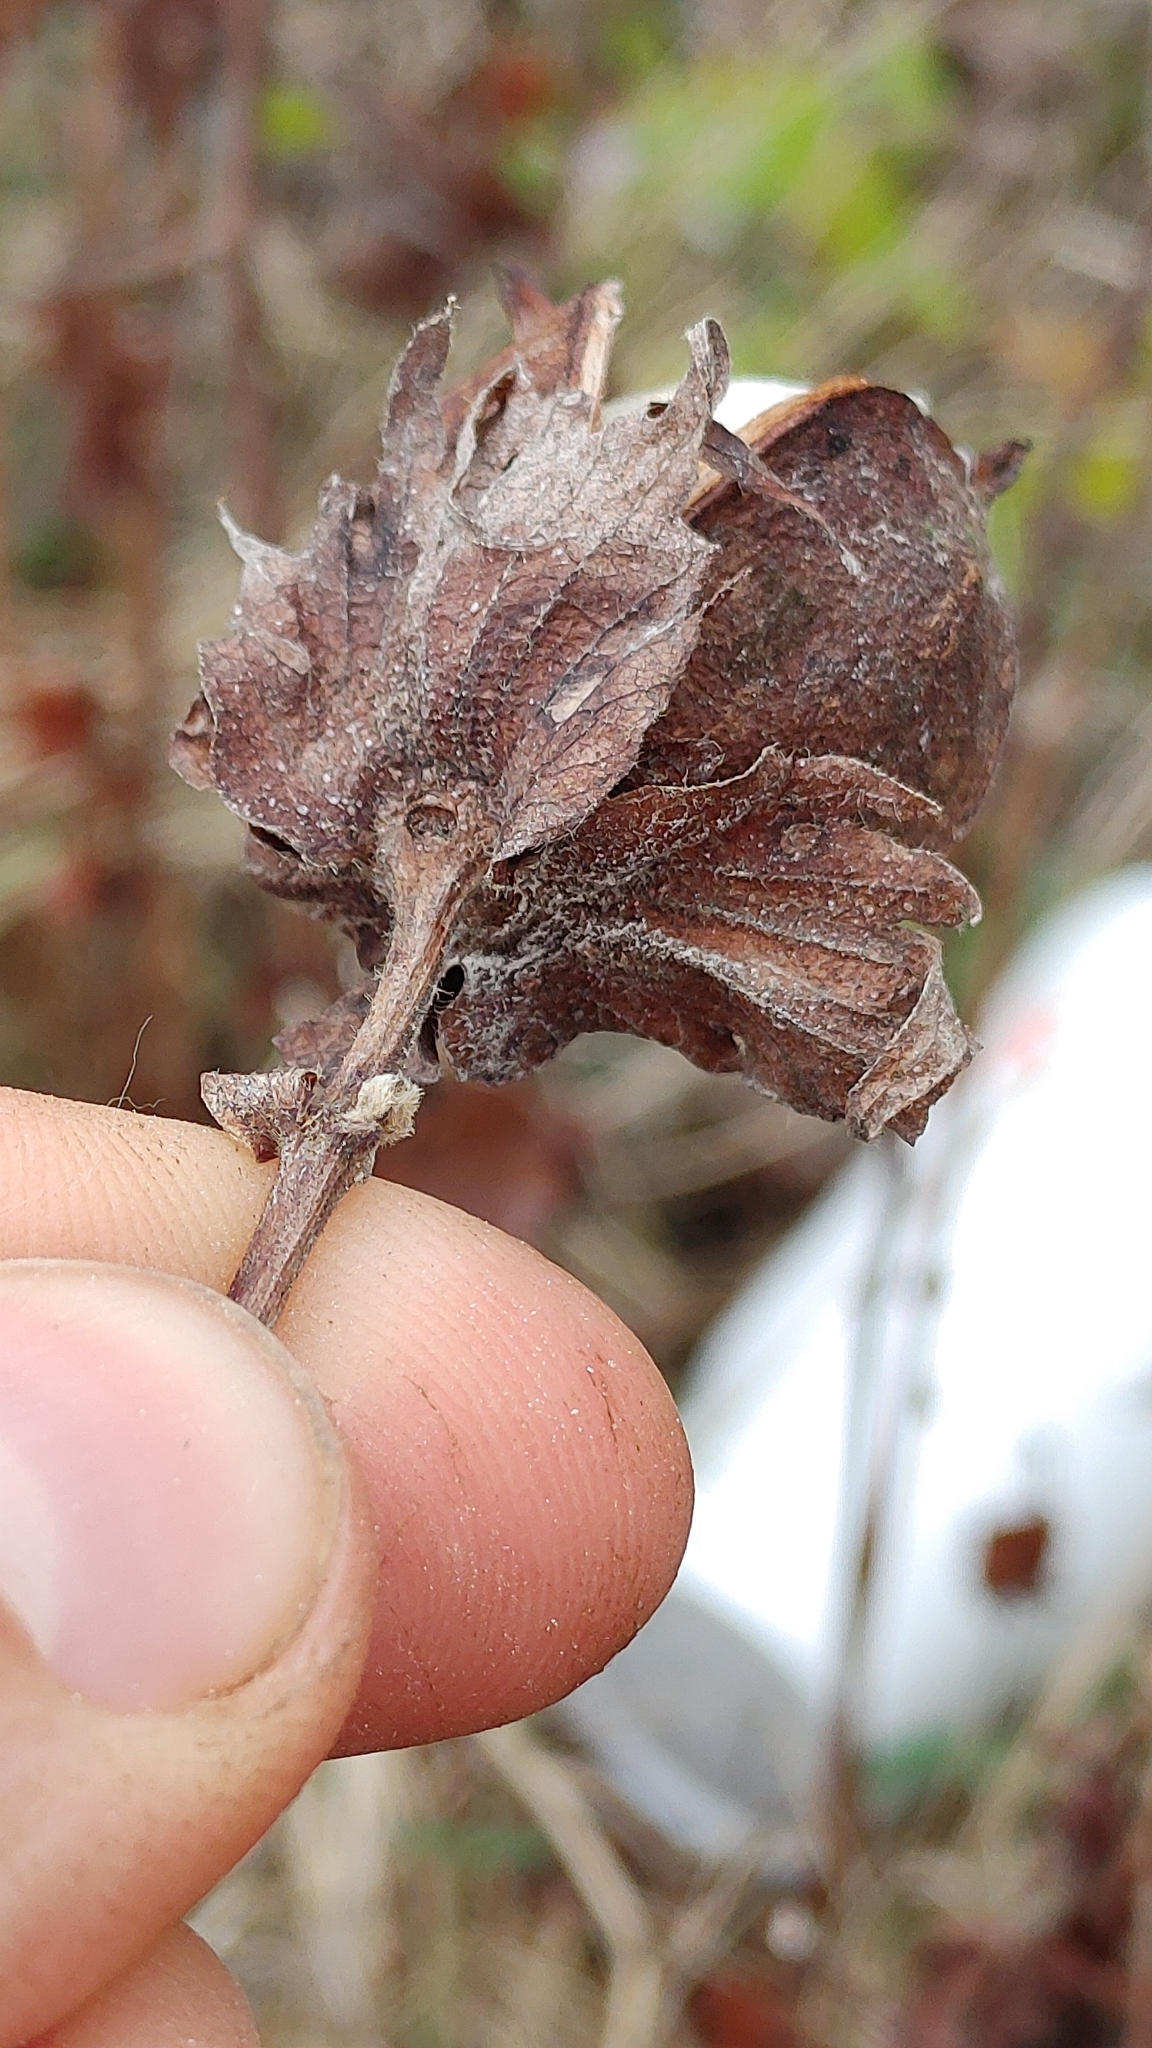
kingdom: Plantae
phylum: Tracheophyta
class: Magnoliopsida
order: Malvales
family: Malvaceae
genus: Gossypium
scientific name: Gossypium hirsutum
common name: Cotton
